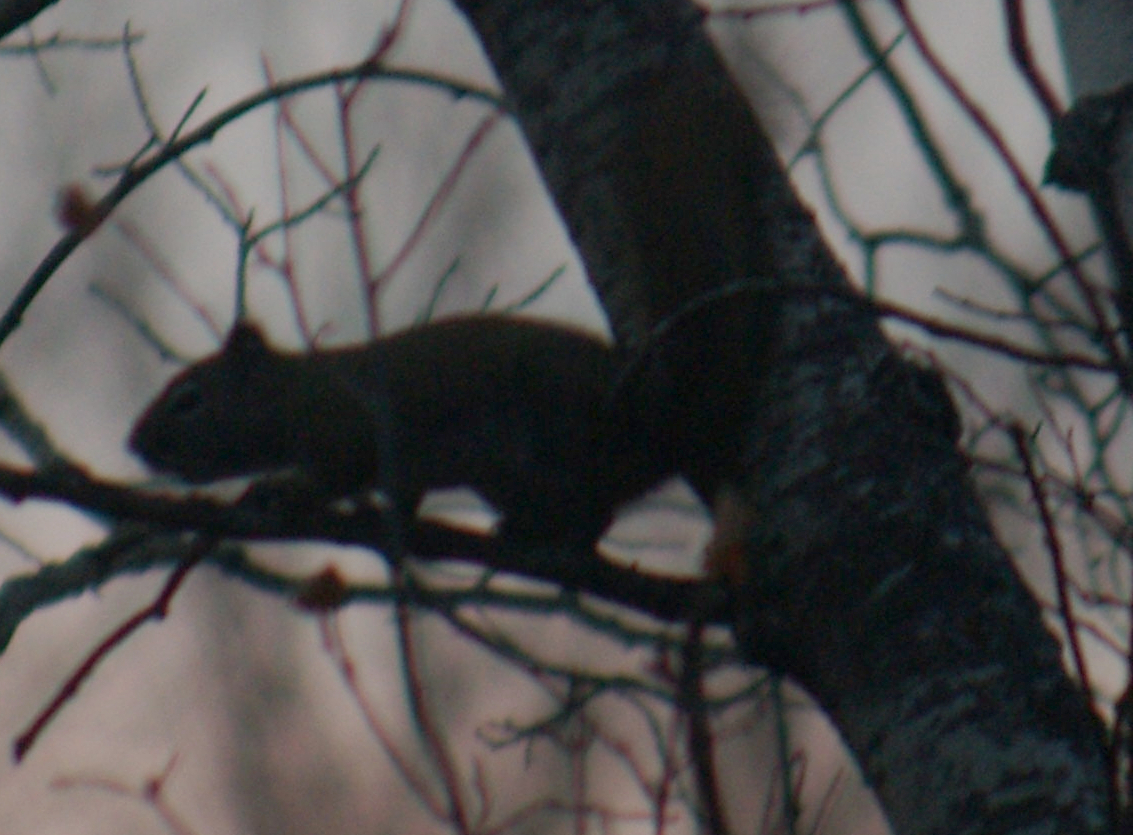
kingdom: Animalia
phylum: Chordata
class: Mammalia
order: Rodentia
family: Sciuridae
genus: Tamiasciurus
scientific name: Tamiasciurus hudsonicus
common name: Red squirrel
